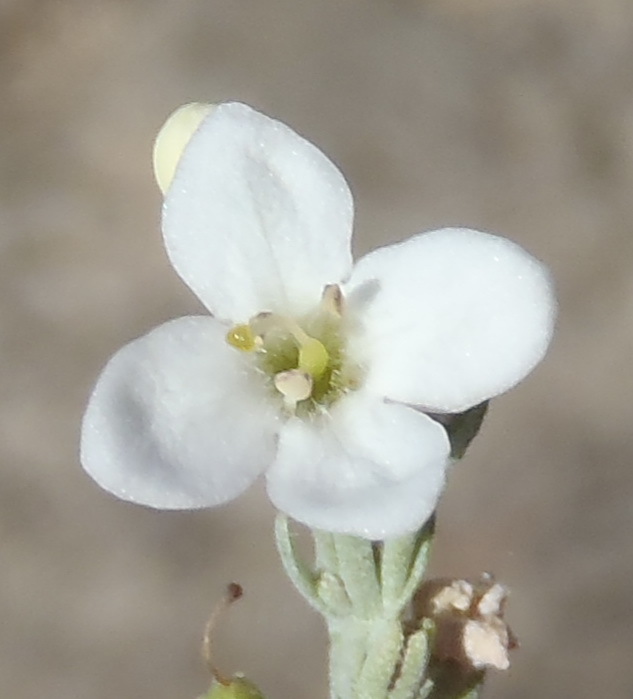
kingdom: Plantae
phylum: Tracheophyta
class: Magnoliopsida
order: Lamiales
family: Scrophulariaceae
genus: Buddleja
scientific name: Buddleja virgata
